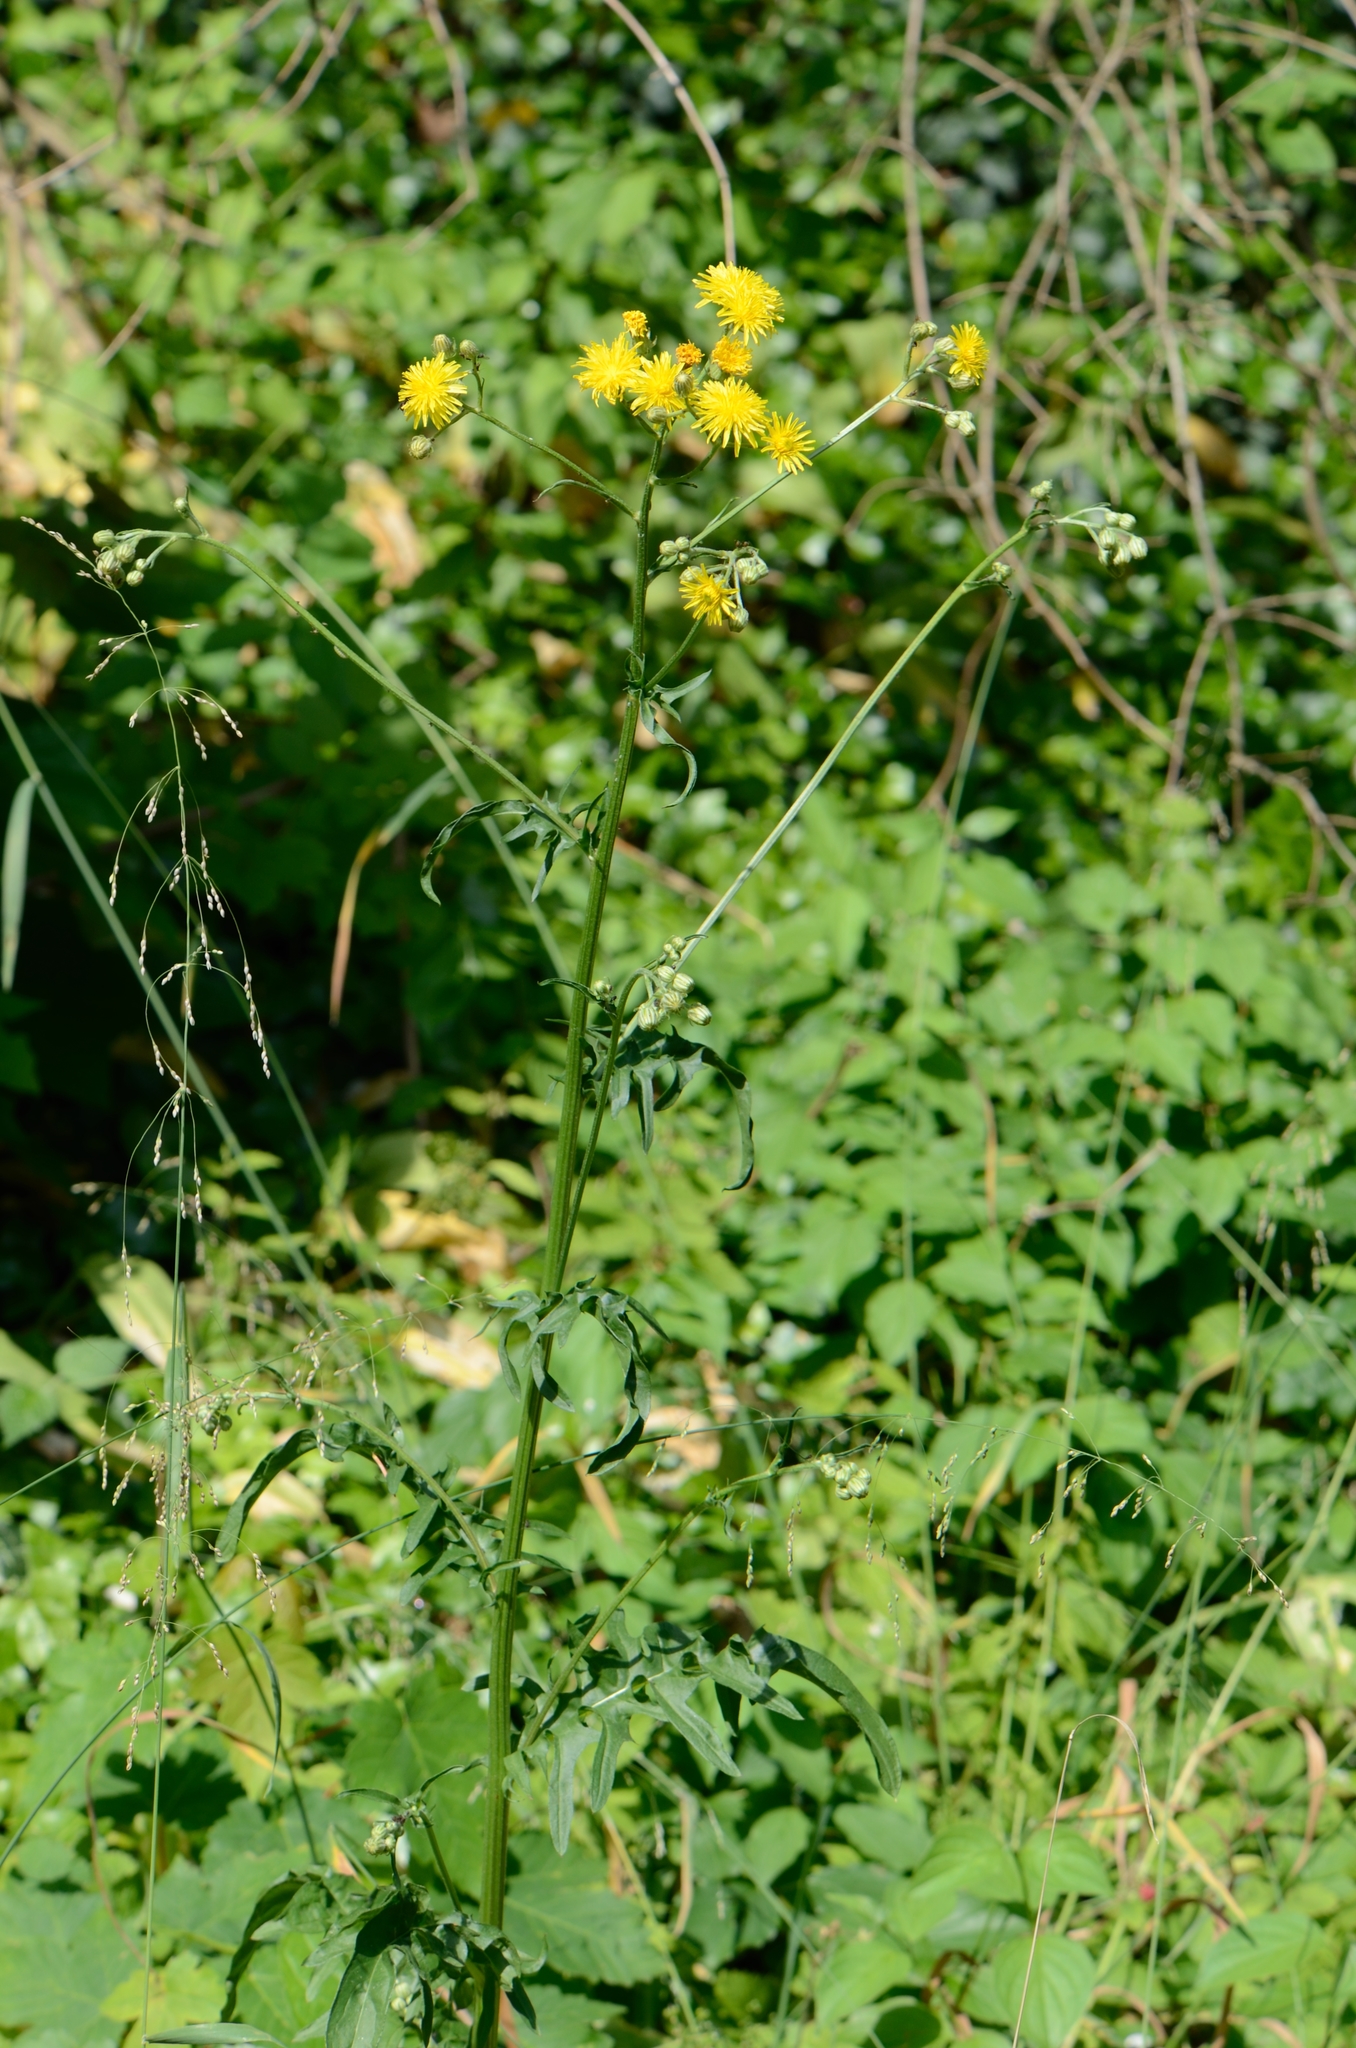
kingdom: Plantae
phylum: Tracheophyta
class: Magnoliopsida
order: Asterales
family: Asteraceae
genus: Crepis
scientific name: Crepis biennis
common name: Rough hawk's-beard
